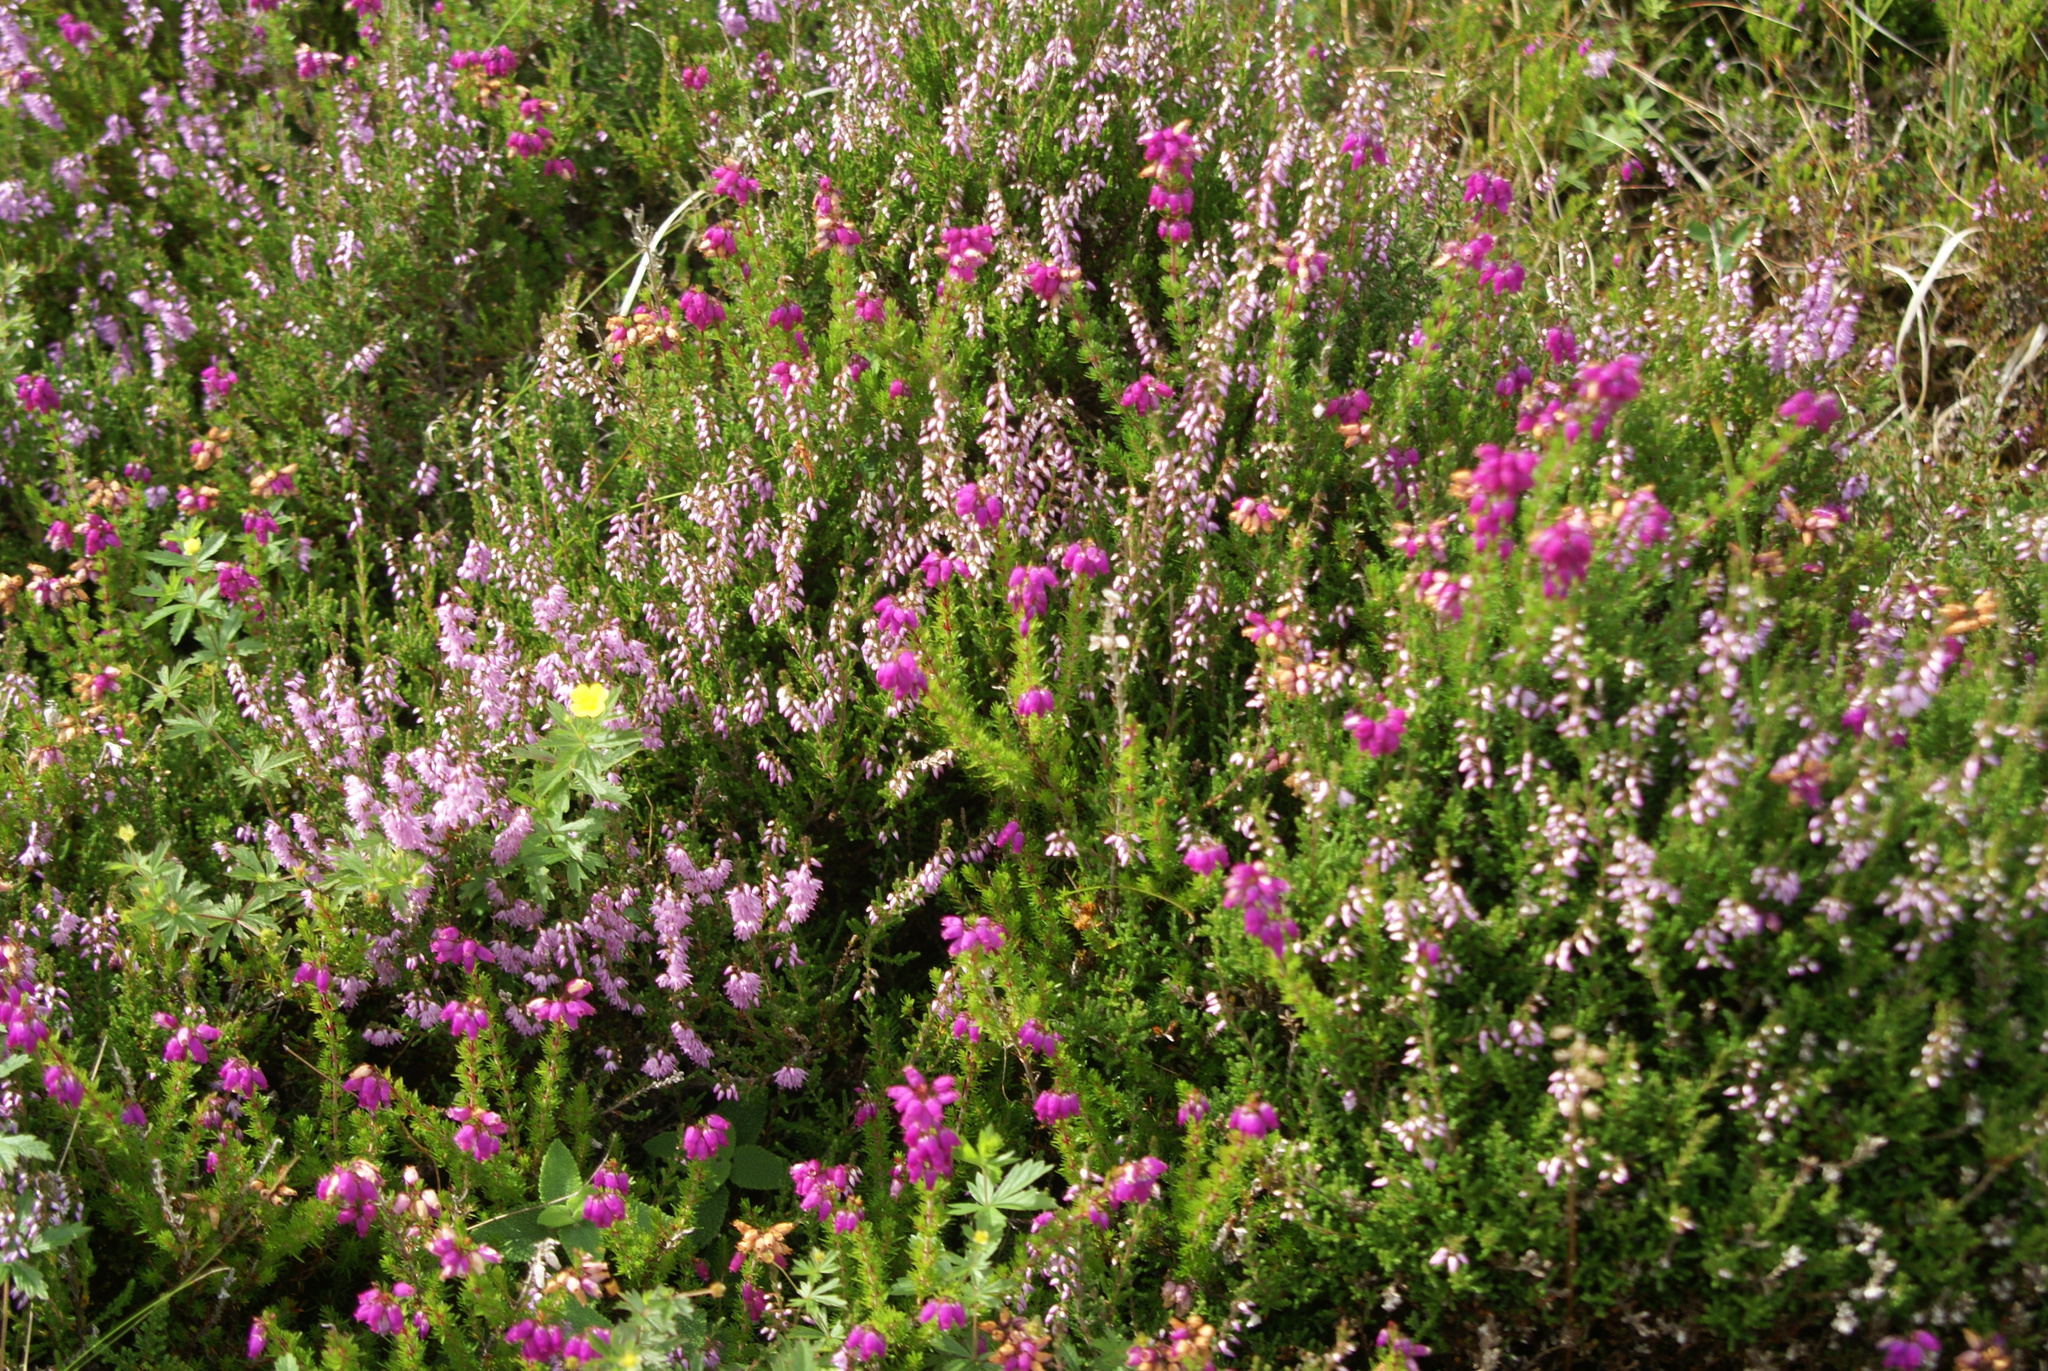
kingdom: Plantae
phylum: Tracheophyta
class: Magnoliopsida
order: Ericales
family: Ericaceae
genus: Calluna
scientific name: Calluna vulgaris
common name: Heather
